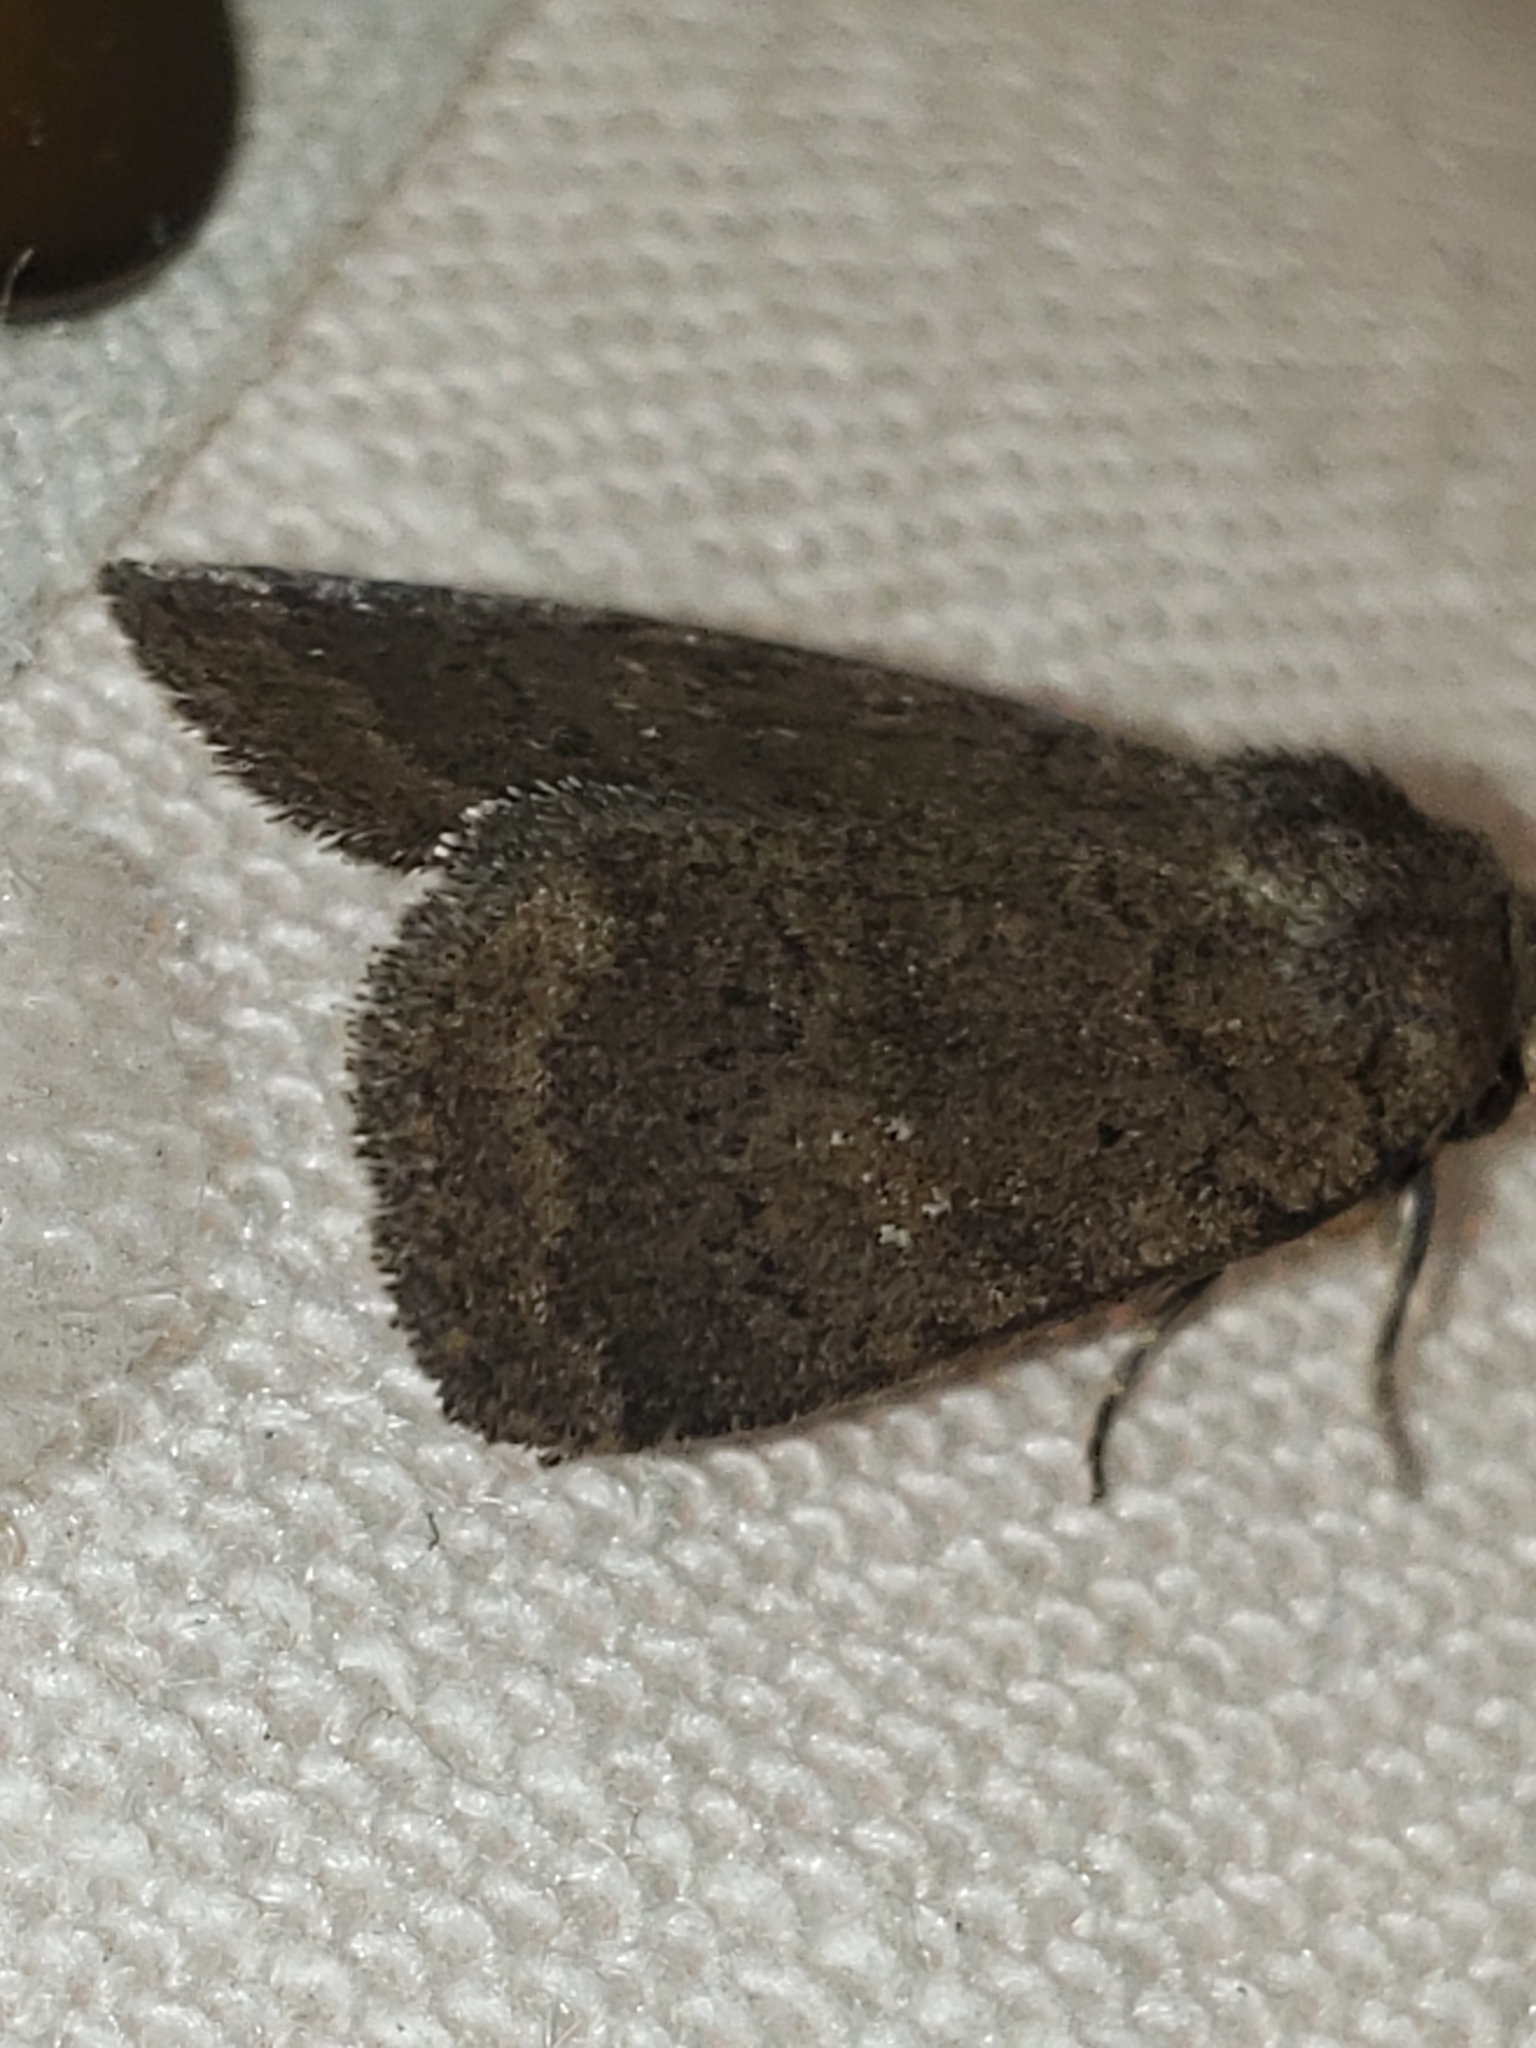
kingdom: Animalia
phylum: Arthropoda
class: Insecta
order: Lepidoptera
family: Noctuidae
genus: Athetis
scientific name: Athetis tarda
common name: Slowpoke moth
